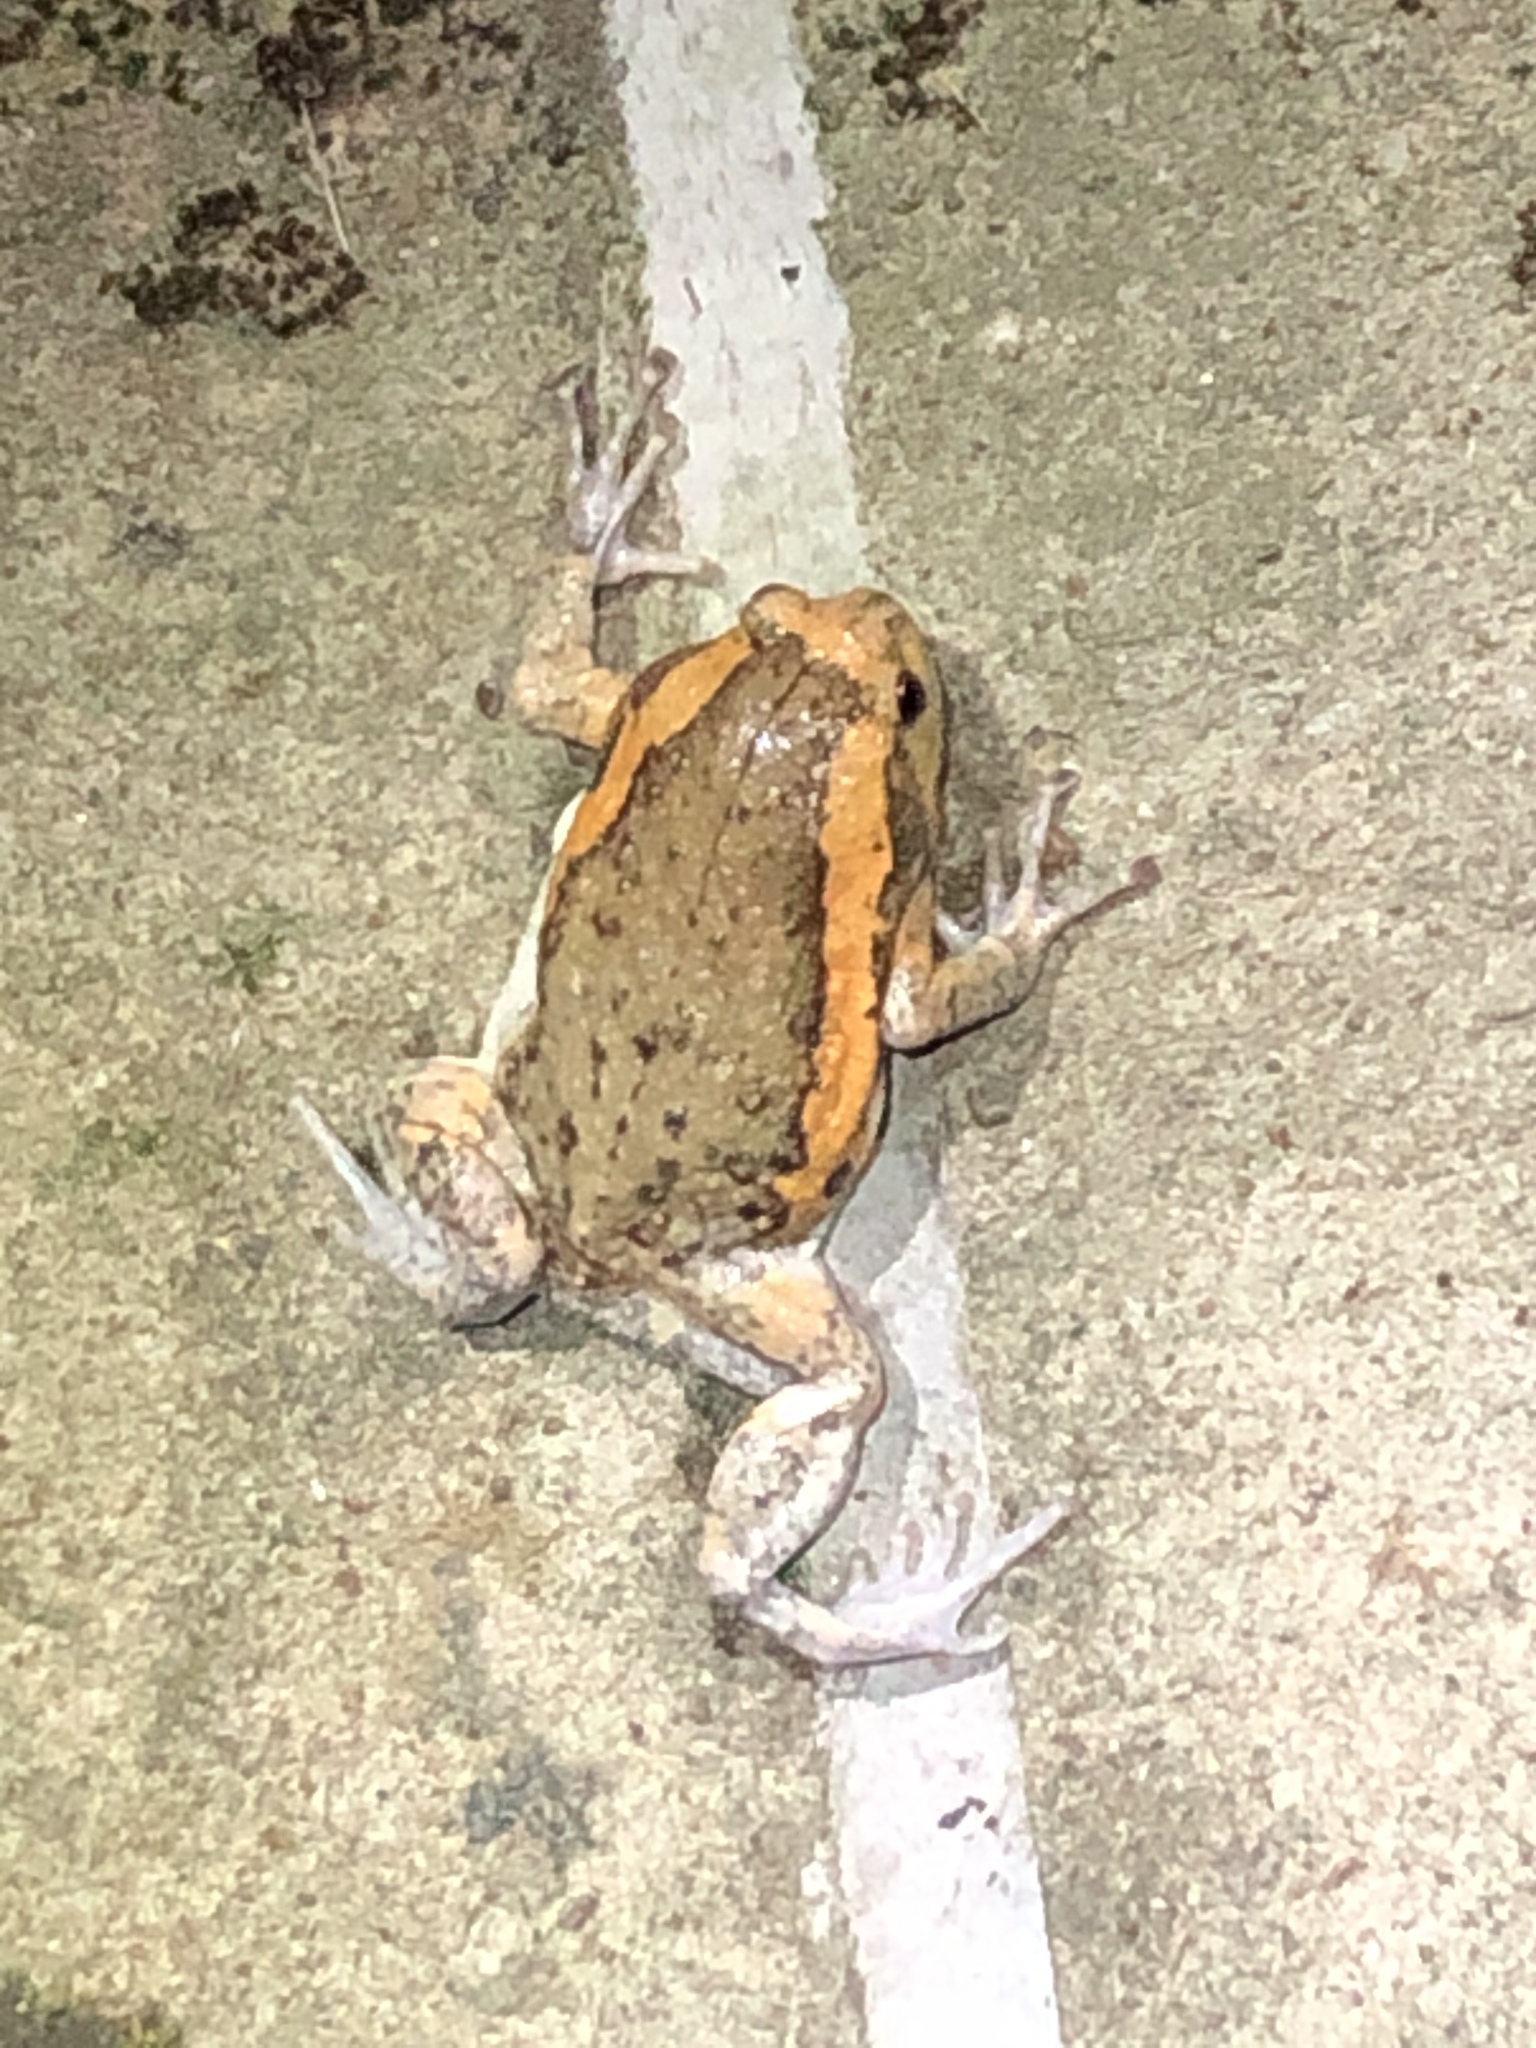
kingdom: Animalia
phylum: Chordata
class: Amphibia
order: Anura
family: Microhylidae
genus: Kaloula
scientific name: Kaloula pulchra
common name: Common,banded bullfrog
